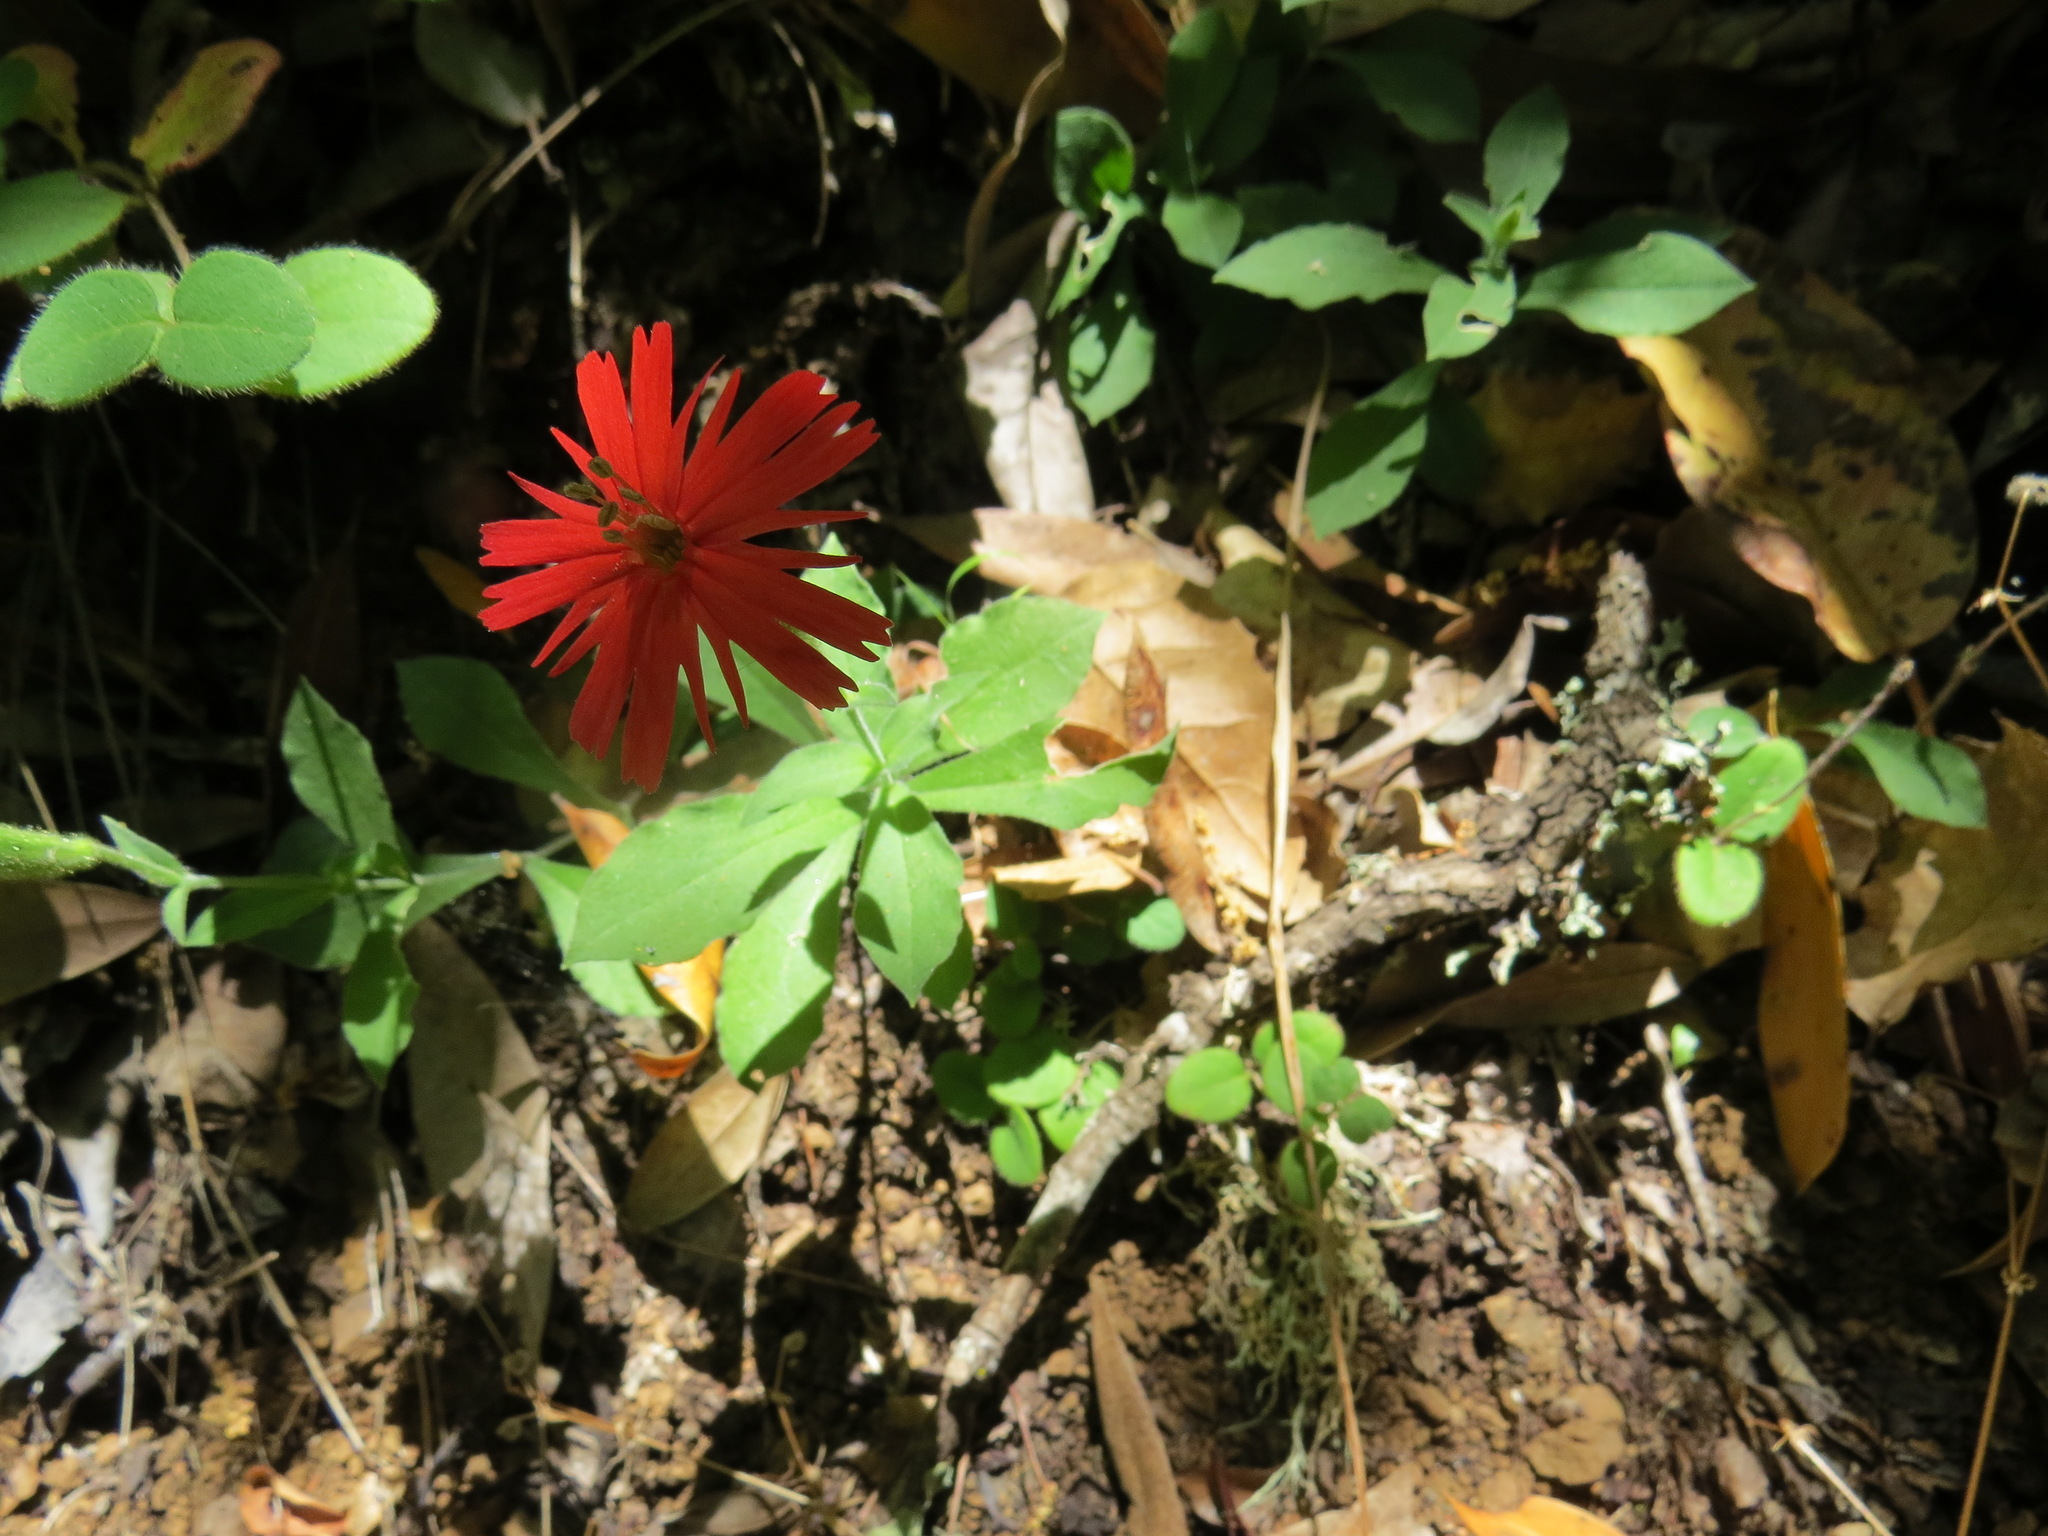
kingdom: Plantae
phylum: Tracheophyta
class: Magnoliopsida
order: Caryophyllales
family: Caryophyllaceae
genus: Silene
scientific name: Silene laciniata
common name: Indian-pink
